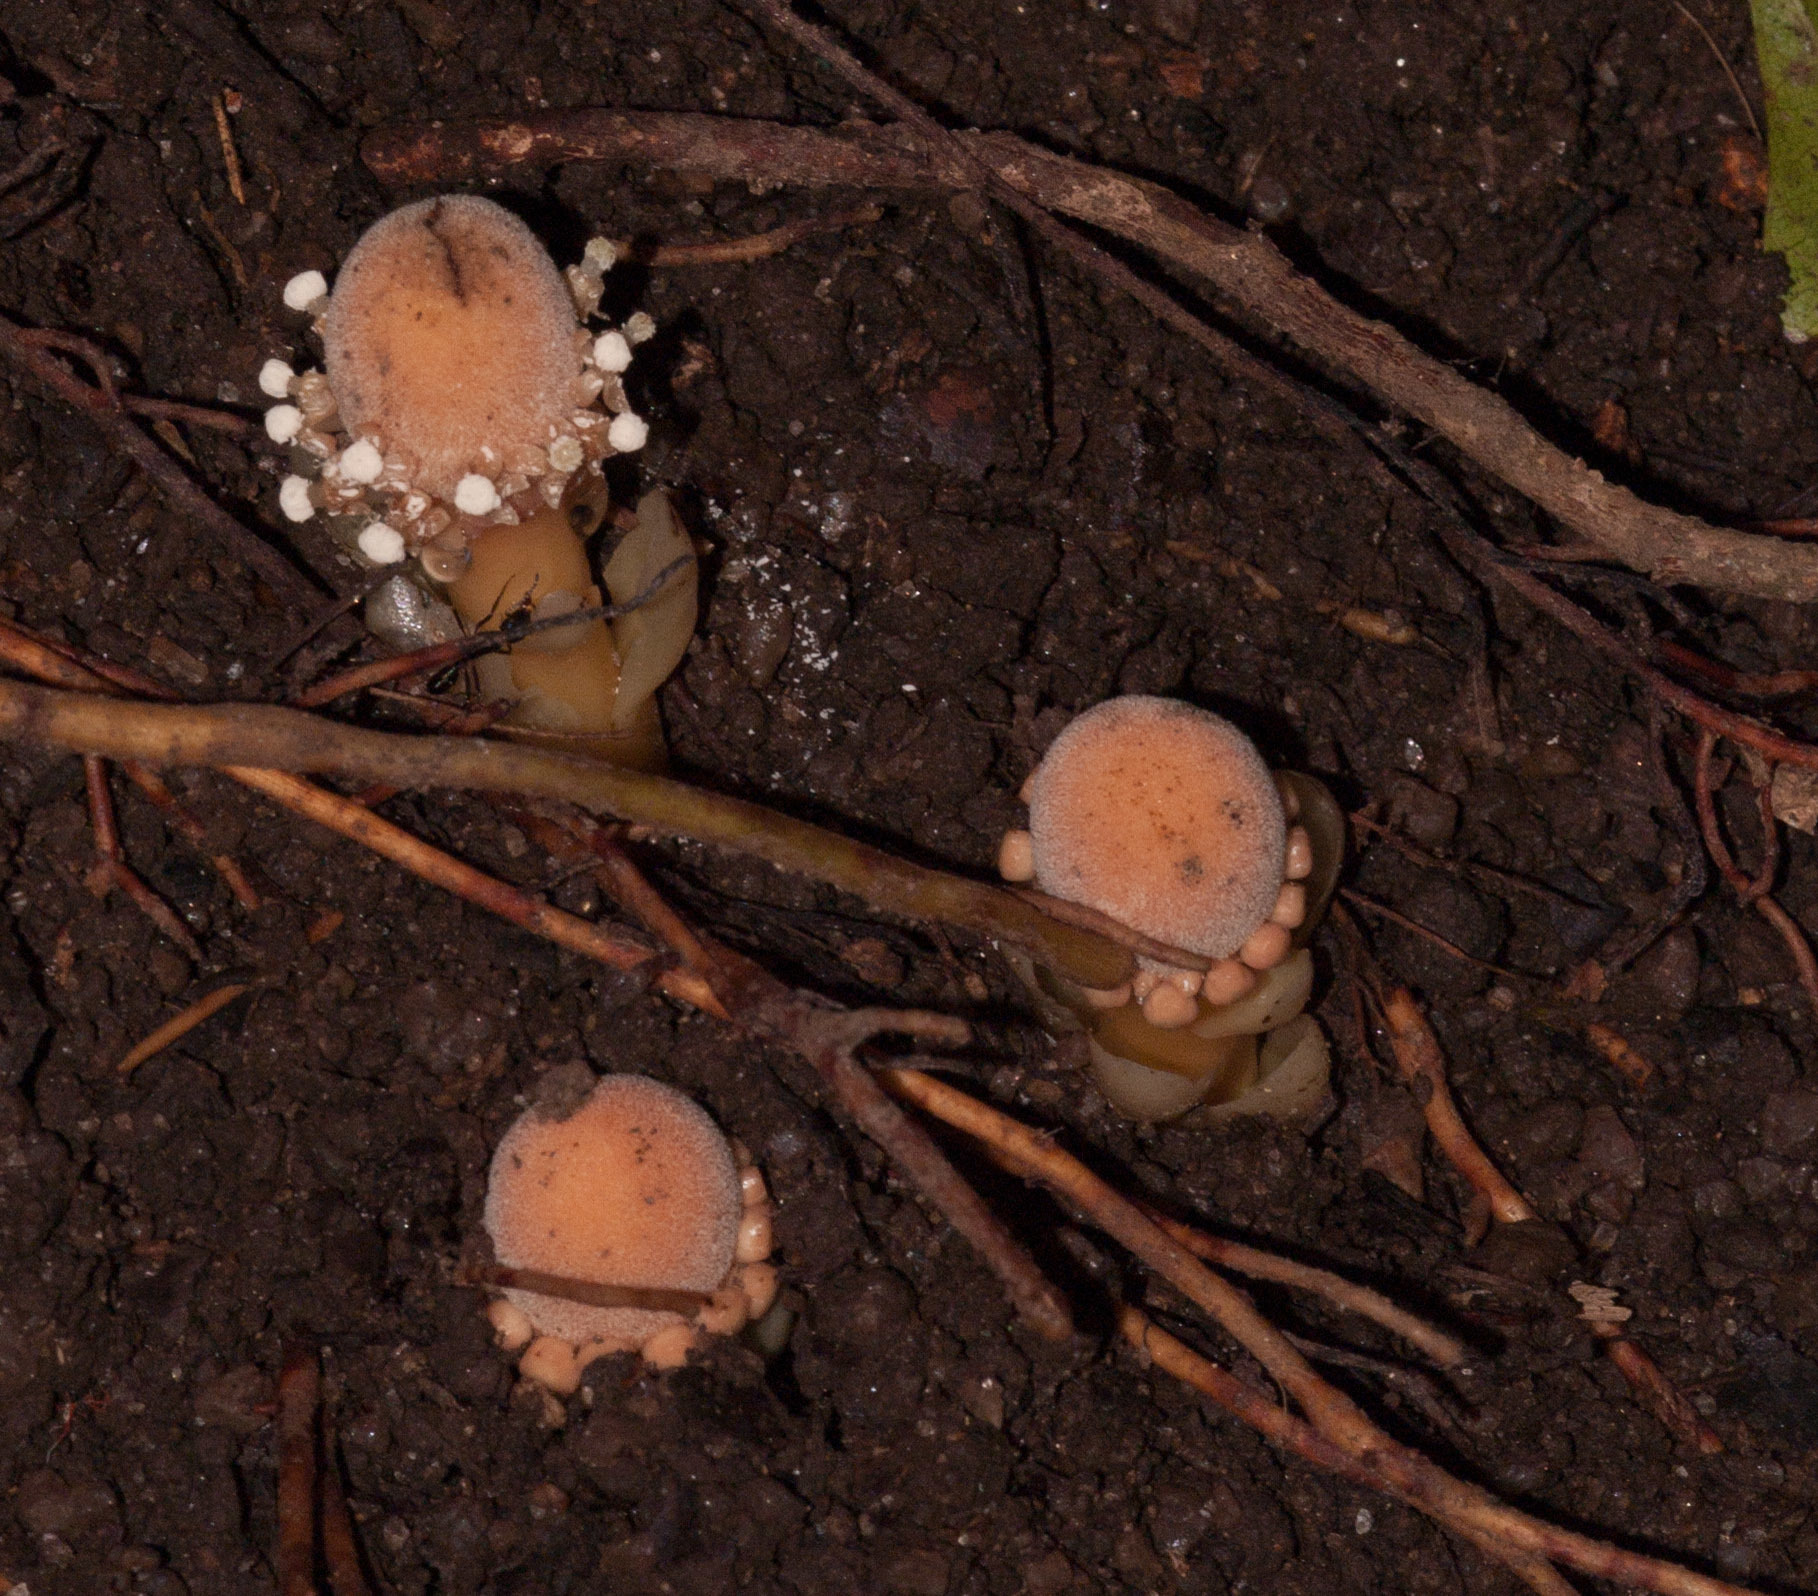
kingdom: Plantae
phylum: Tracheophyta
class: Magnoliopsida
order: Santalales
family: Balanophoraceae
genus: Balanophora
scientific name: Balanophora fungosa
